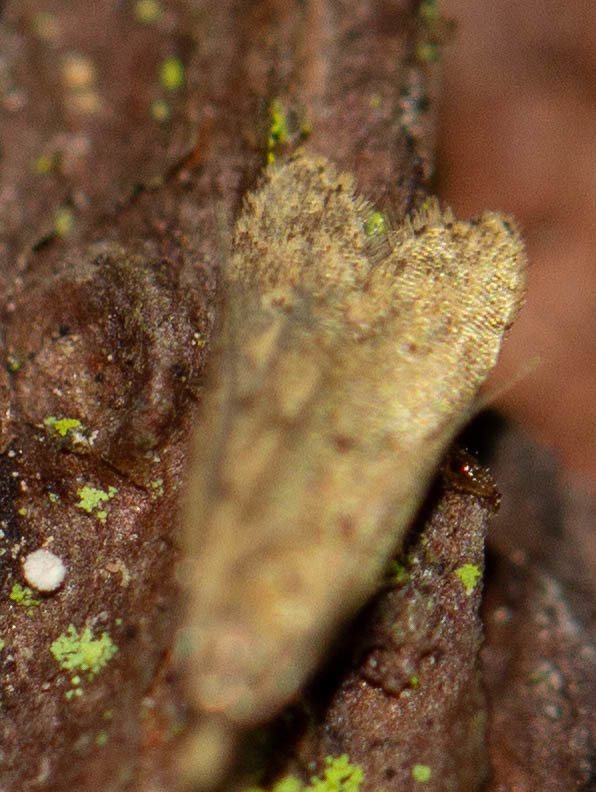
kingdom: Animalia
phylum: Arthropoda
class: Insecta
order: Lepidoptera
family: Gelechiidae
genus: Dichomeris
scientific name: Dichomeris punctipennella
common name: Many-spotted dichomeris moth
